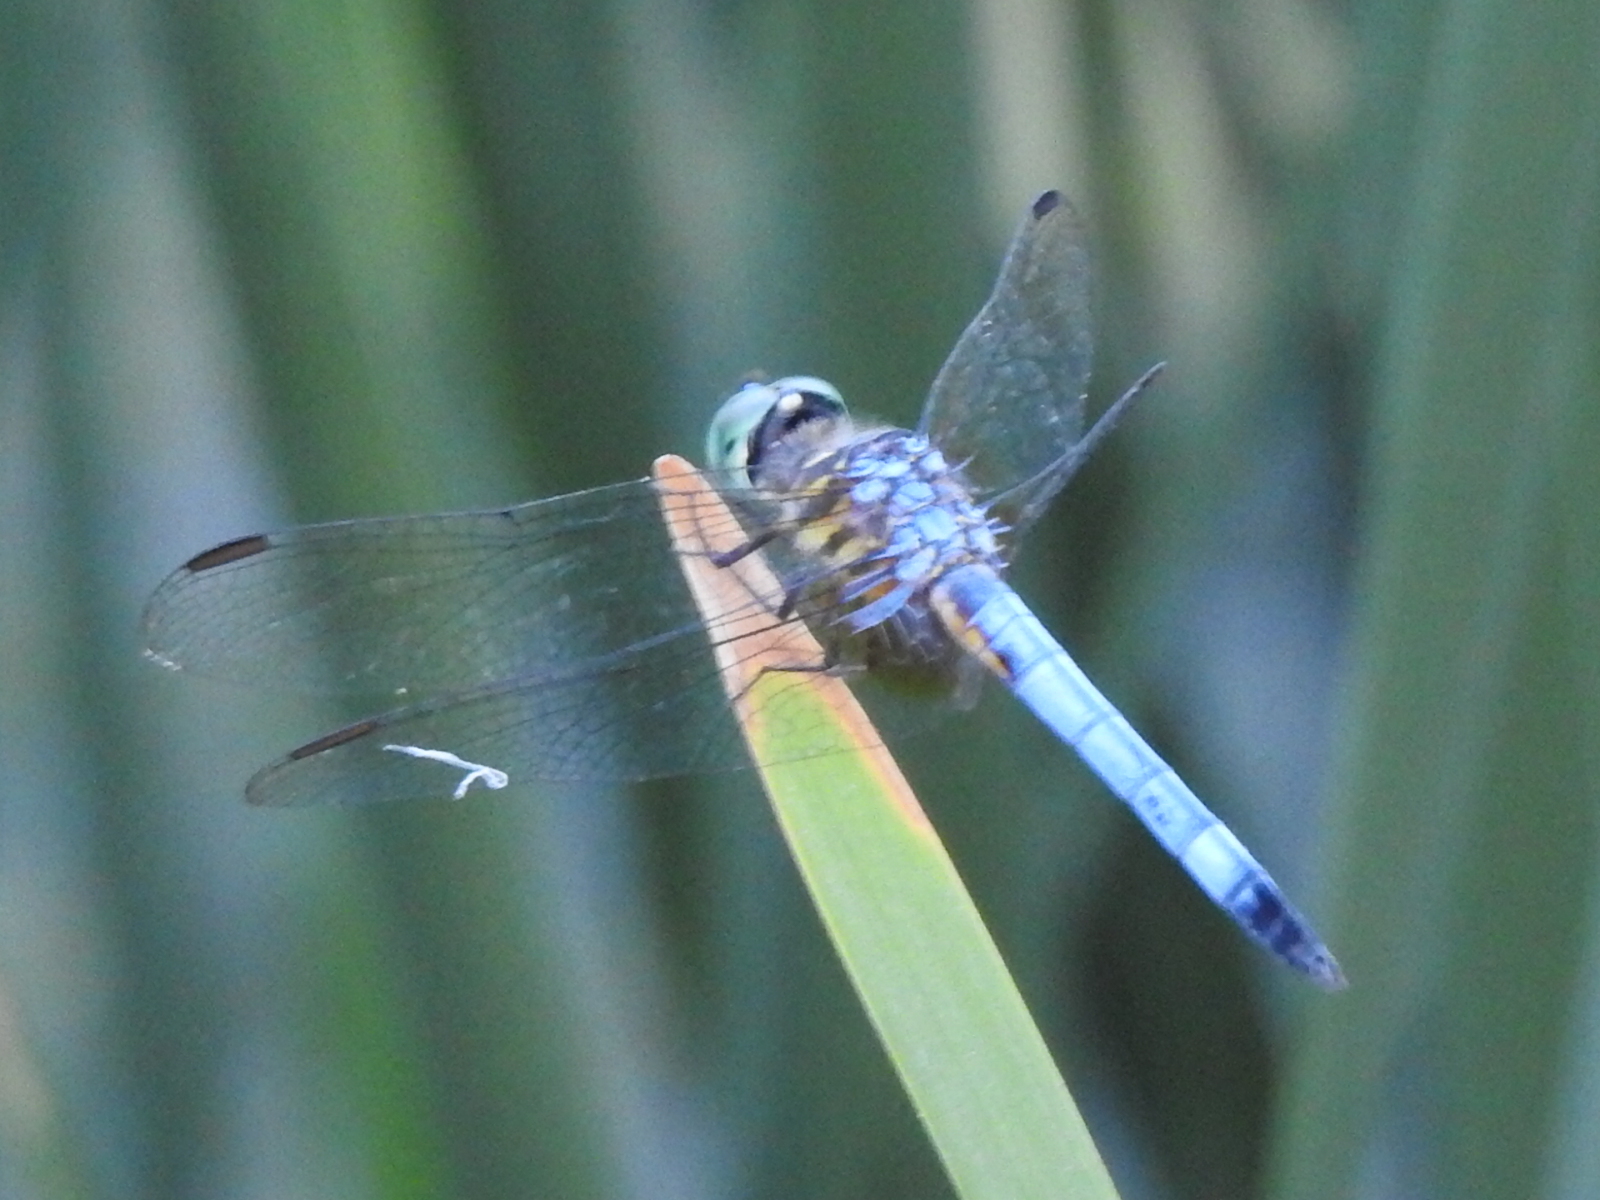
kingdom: Animalia
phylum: Arthropoda
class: Insecta
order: Odonata
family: Libellulidae
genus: Pachydiplax
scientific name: Pachydiplax longipennis
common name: Blue dasher
